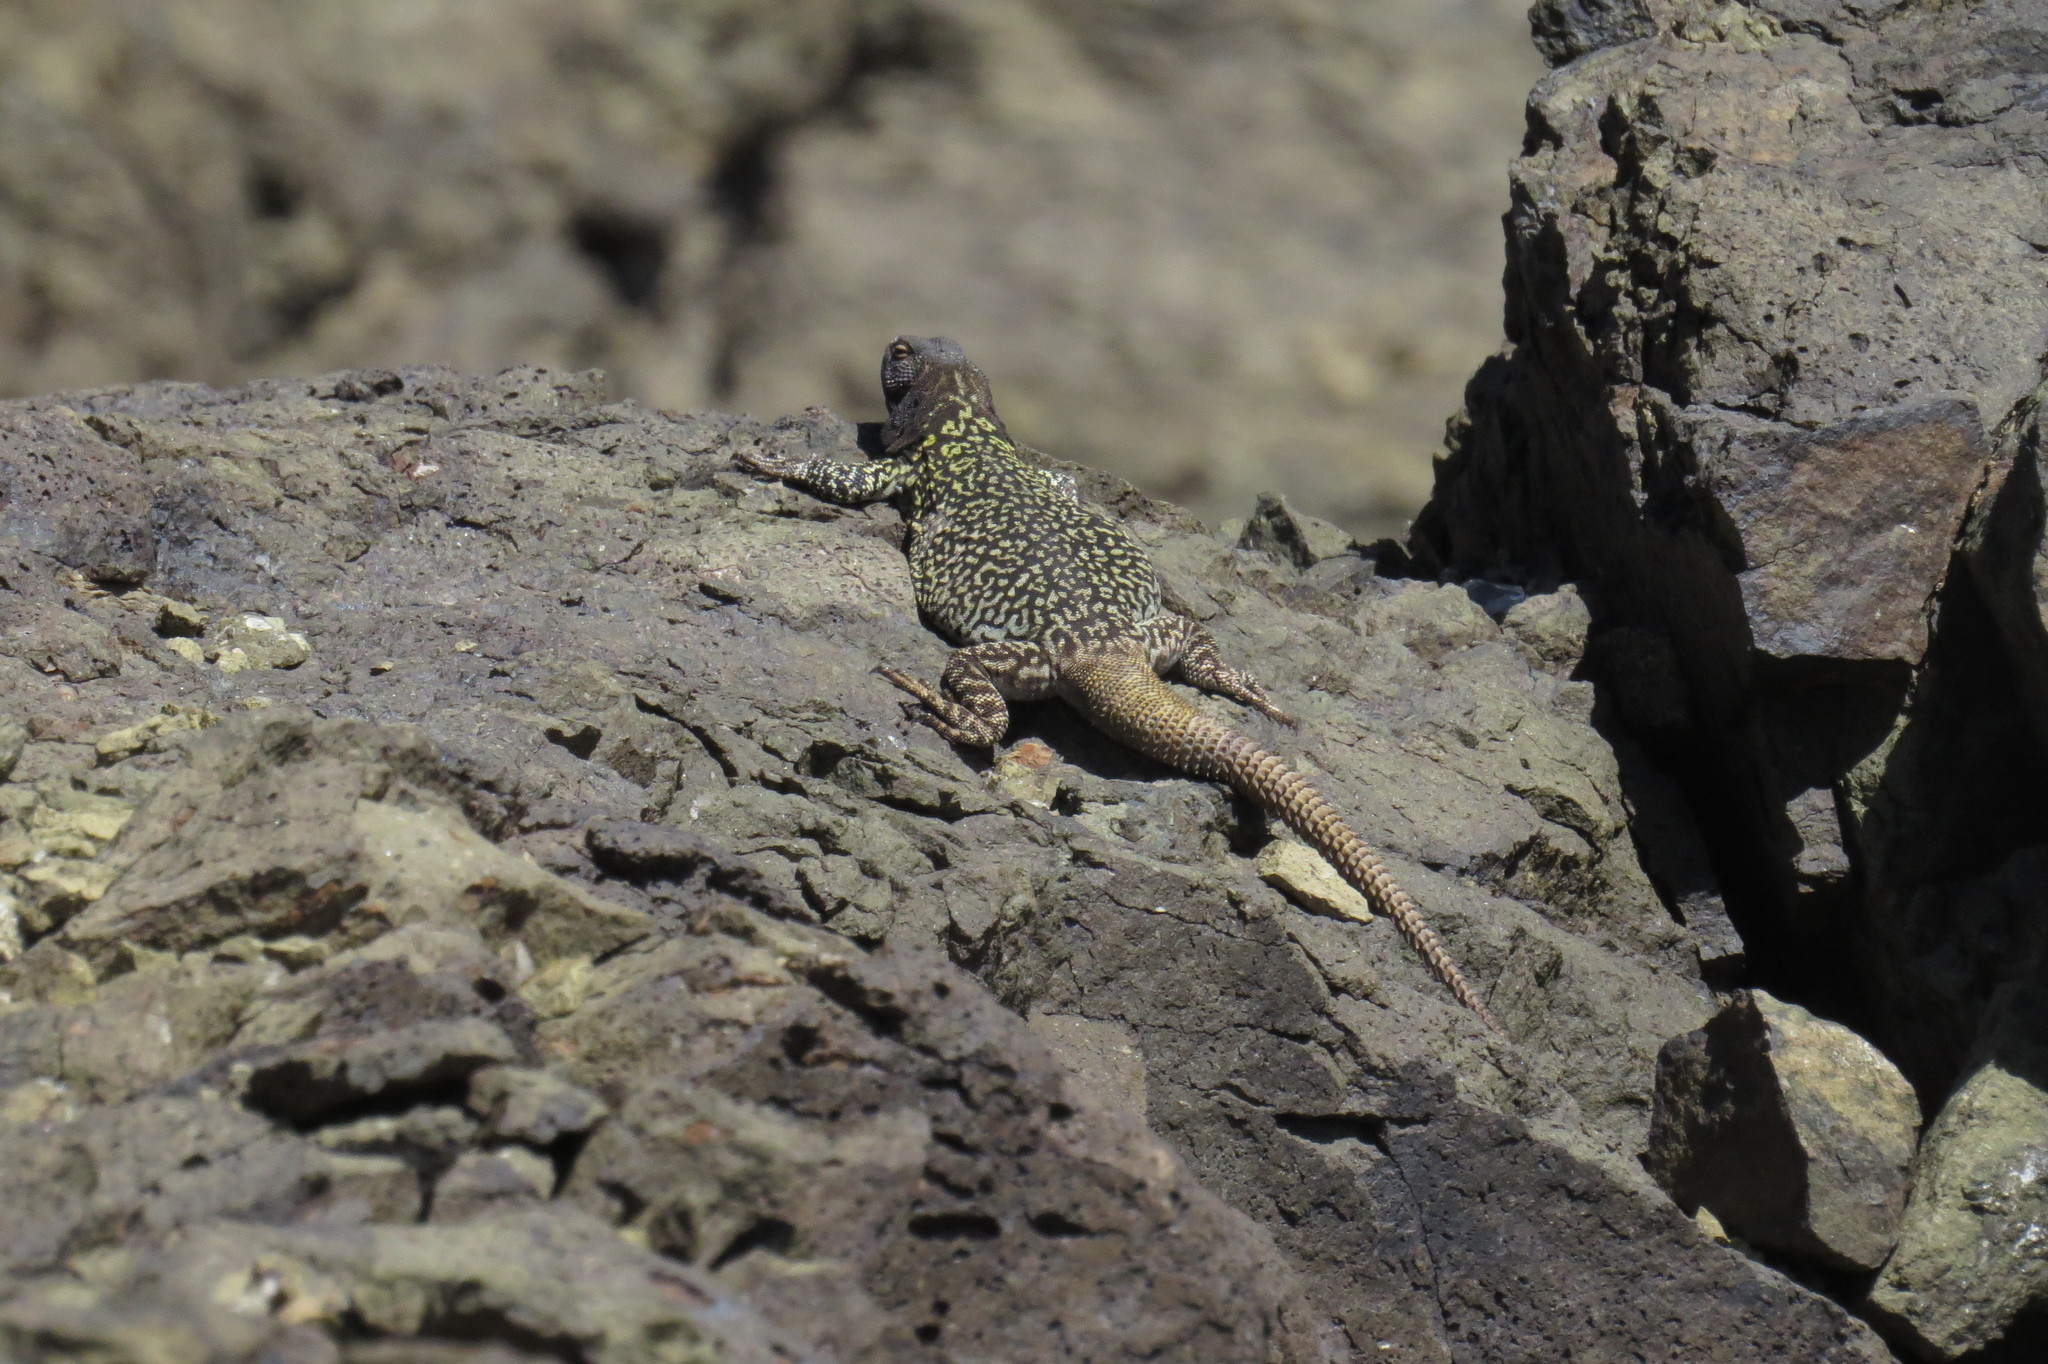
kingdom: Animalia
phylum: Chordata
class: Squamata
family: Liolaemidae
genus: Phymaturus
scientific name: Phymaturus palluma
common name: High mountain lizard
